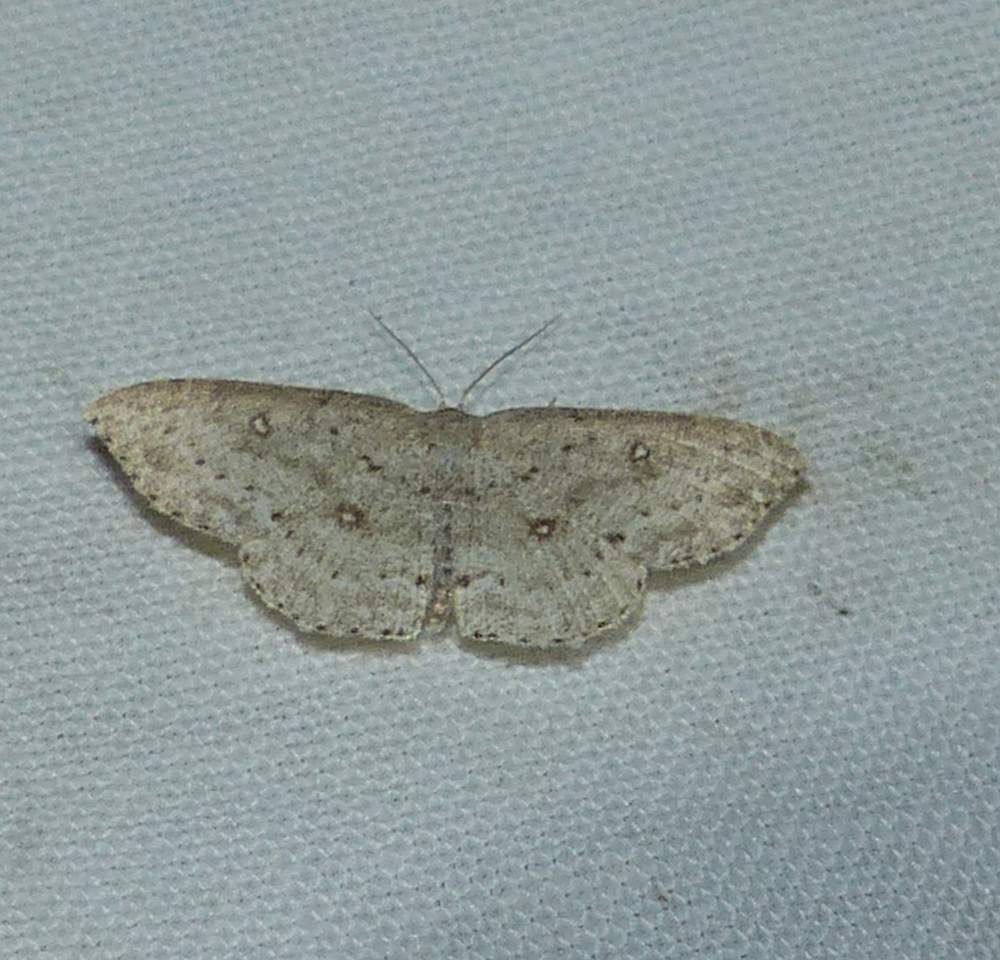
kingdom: Animalia
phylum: Arthropoda
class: Insecta
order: Lepidoptera
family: Geometridae
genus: Cyclophora
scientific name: Cyclophora pendulinaria
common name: Sweet fern geometer
